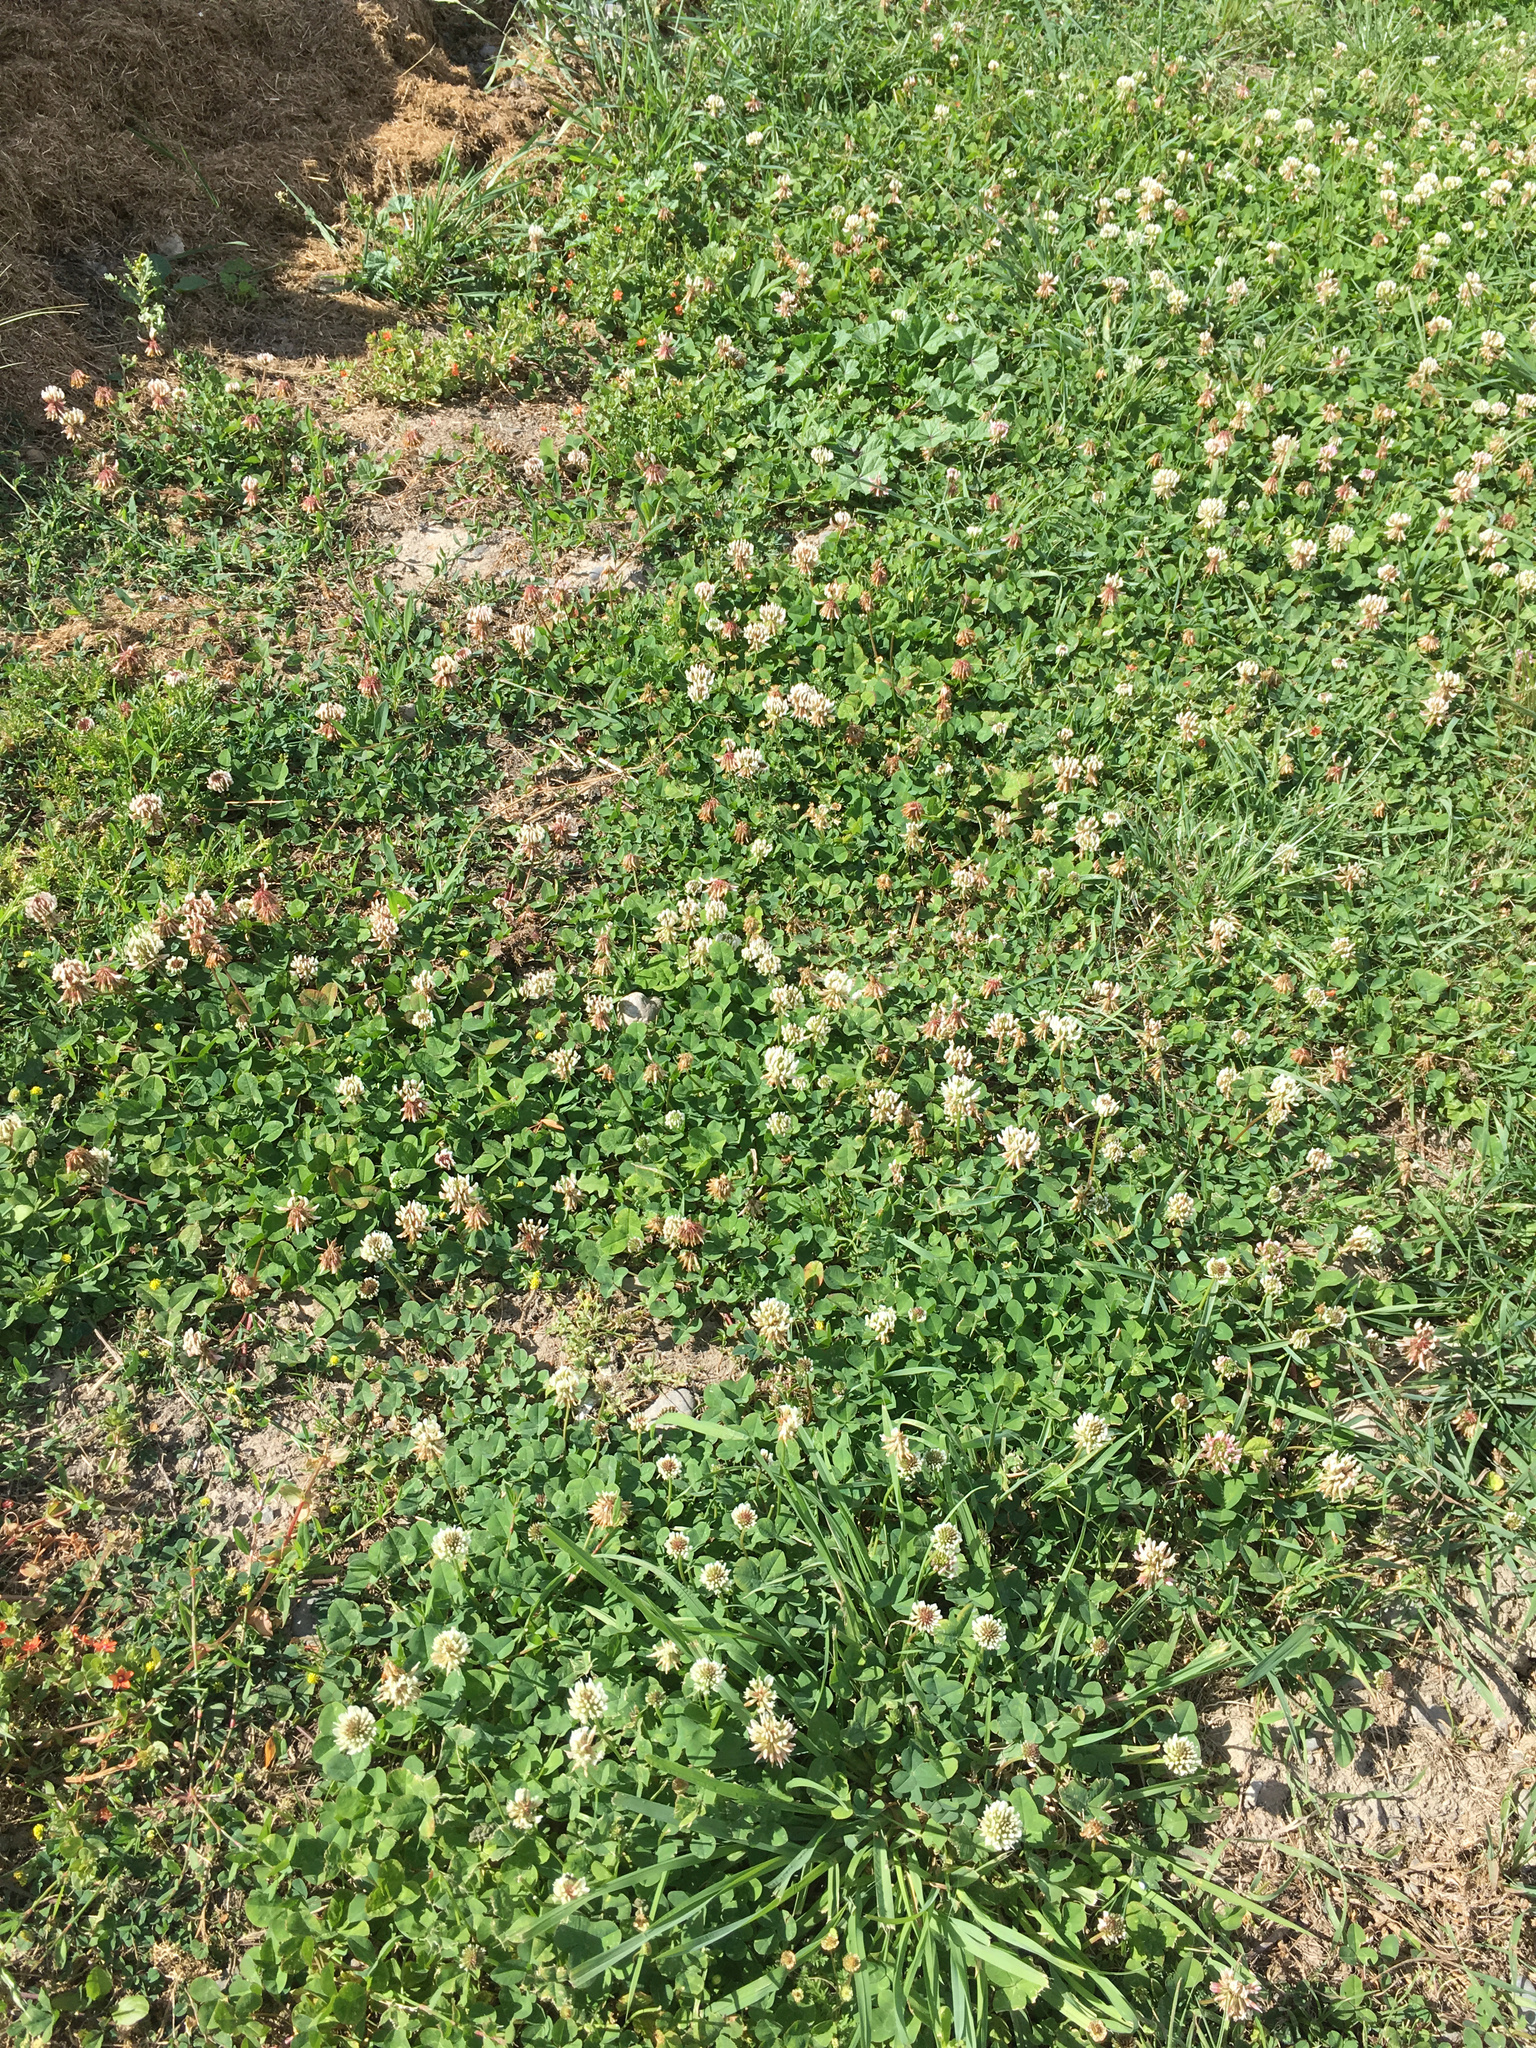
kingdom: Plantae
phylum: Tracheophyta
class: Magnoliopsida
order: Fabales
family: Fabaceae
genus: Trifolium
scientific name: Trifolium repens
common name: White clover
